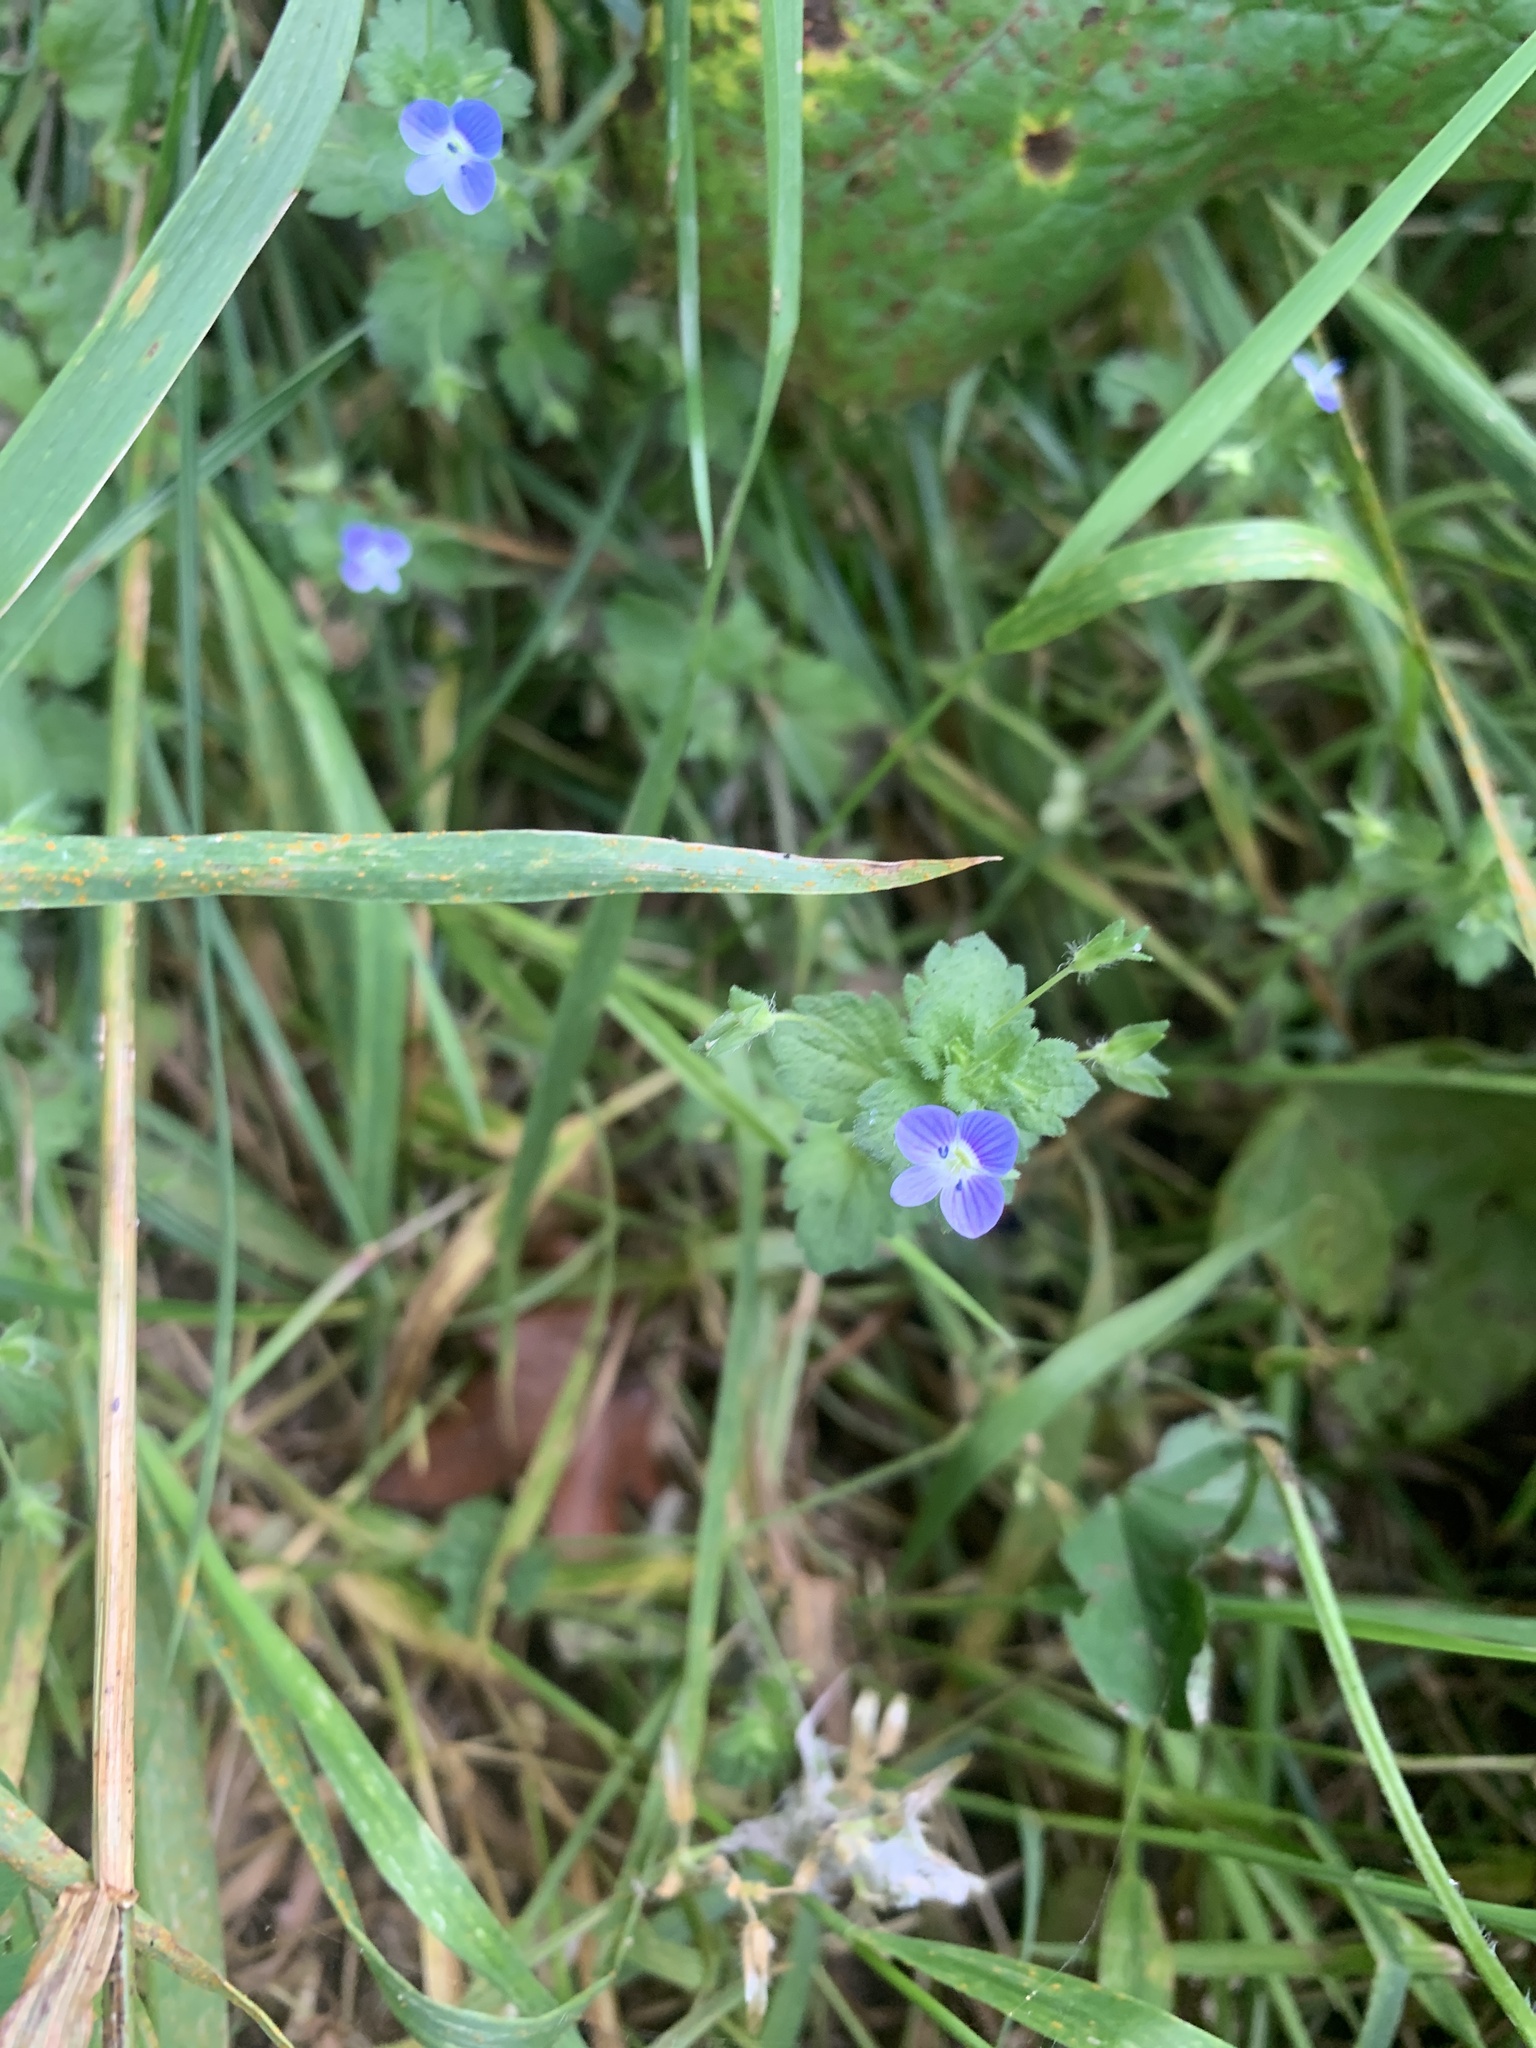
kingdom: Plantae
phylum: Tracheophyta
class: Magnoliopsida
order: Lamiales
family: Plantaginaceae
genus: Veronica
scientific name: Veronica persica
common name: Common field-speedwell
